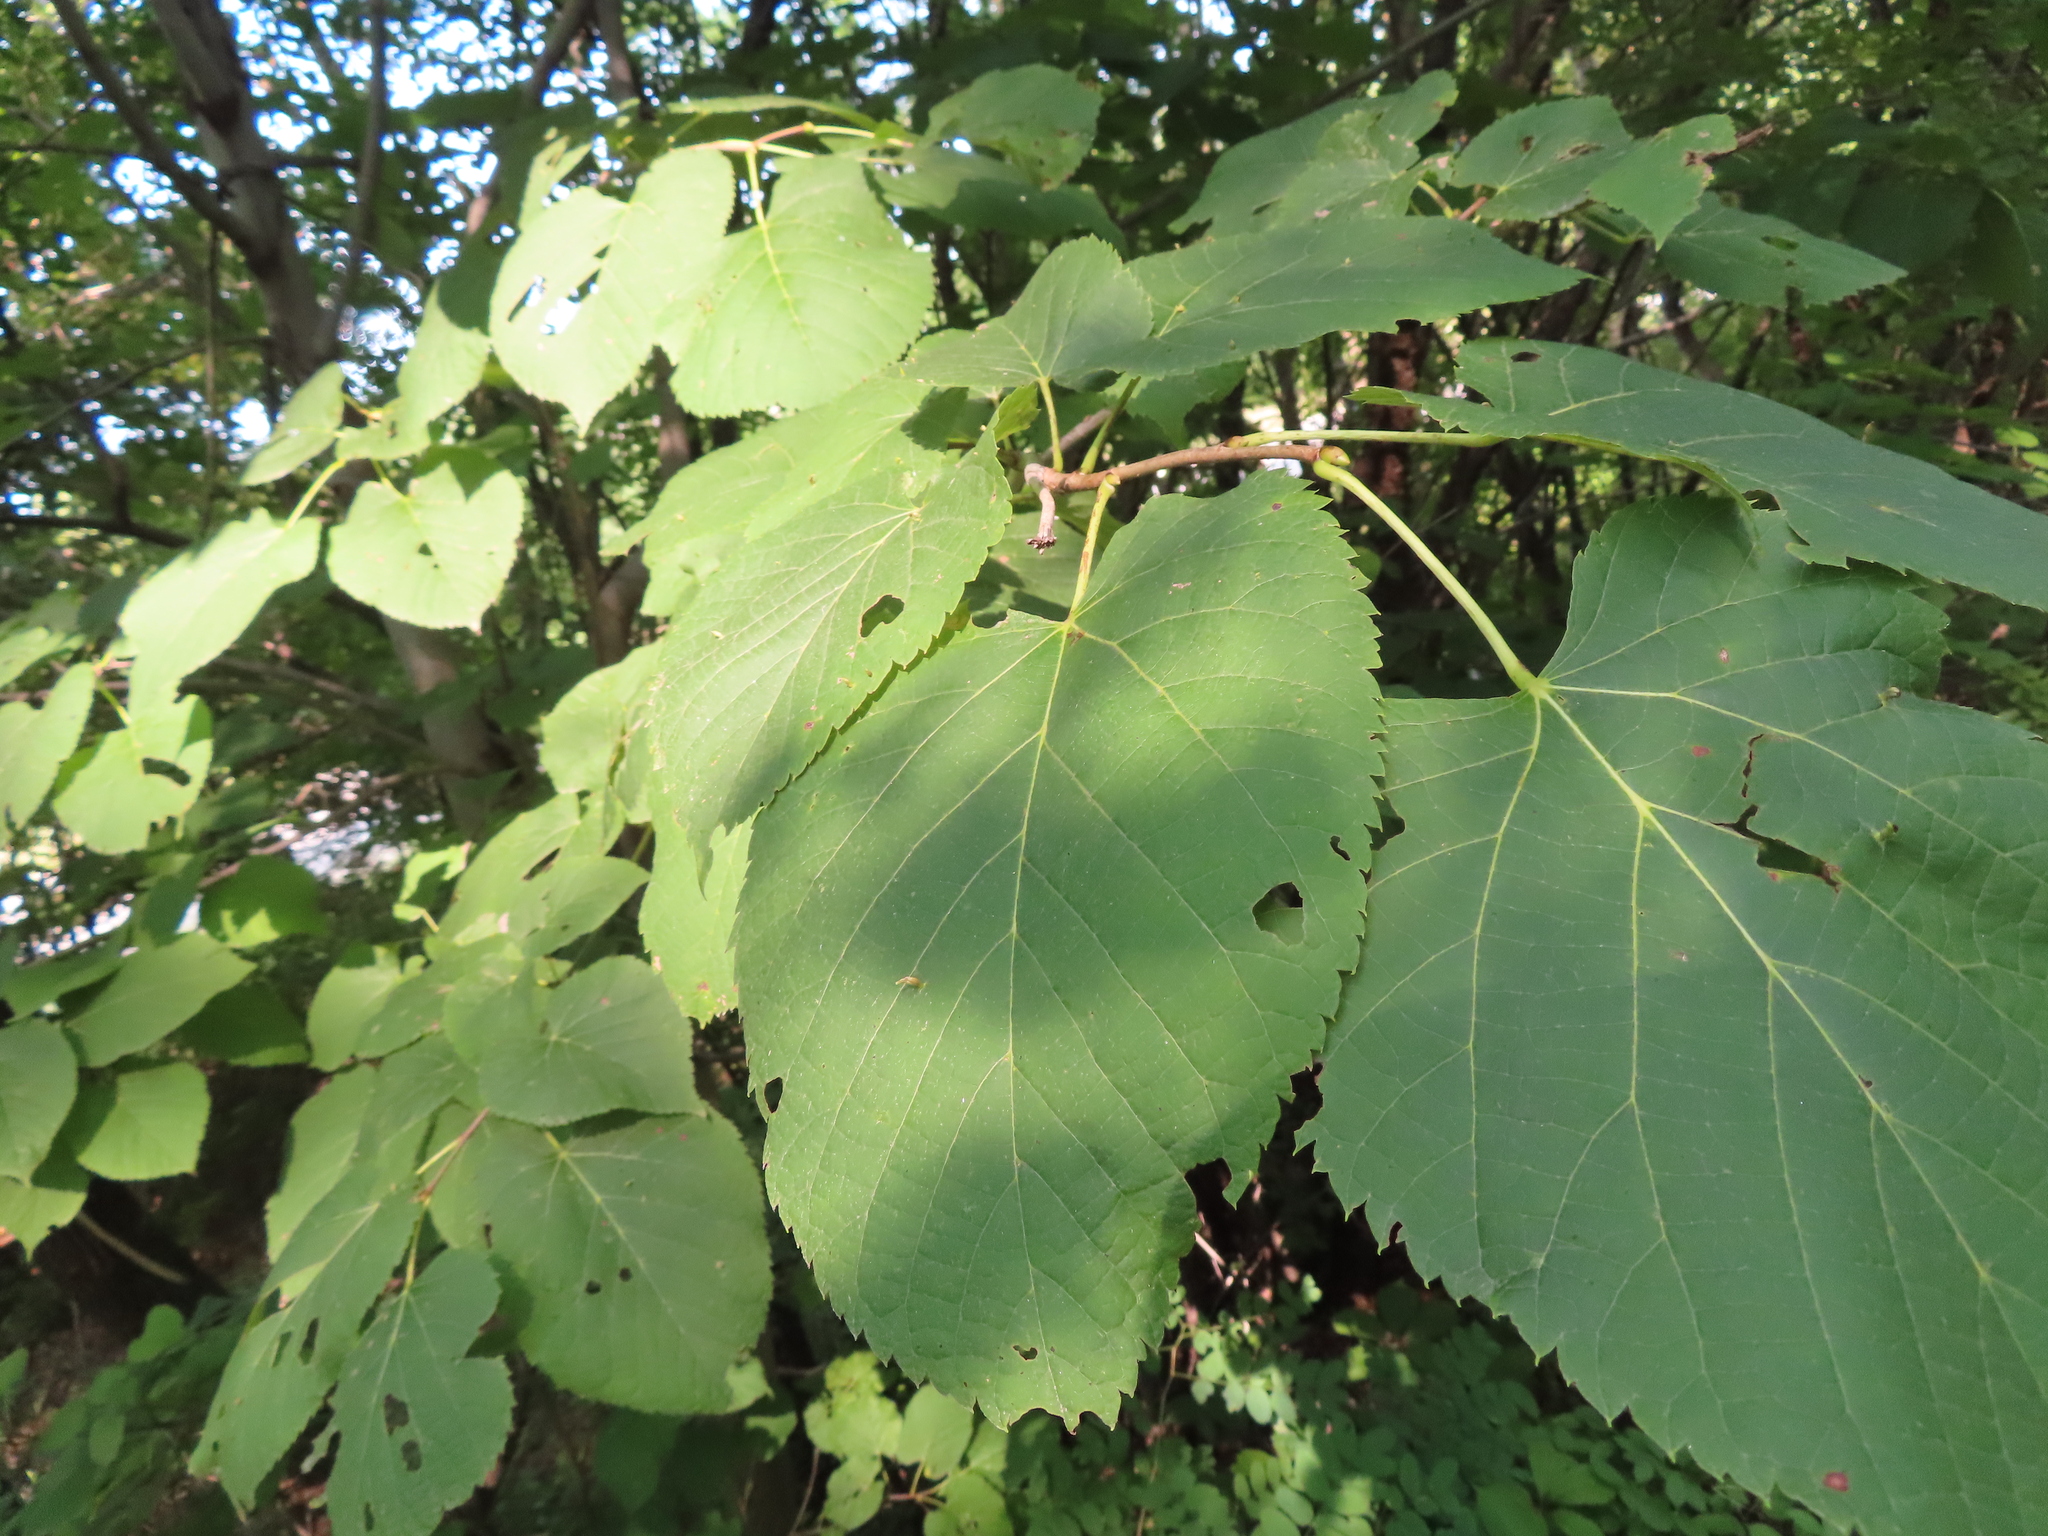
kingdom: Plantae
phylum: Tracheophyta
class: Magnoliopsida
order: Malvales
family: Malvaceae
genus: Tilia
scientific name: Tilia americana
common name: Basswood
